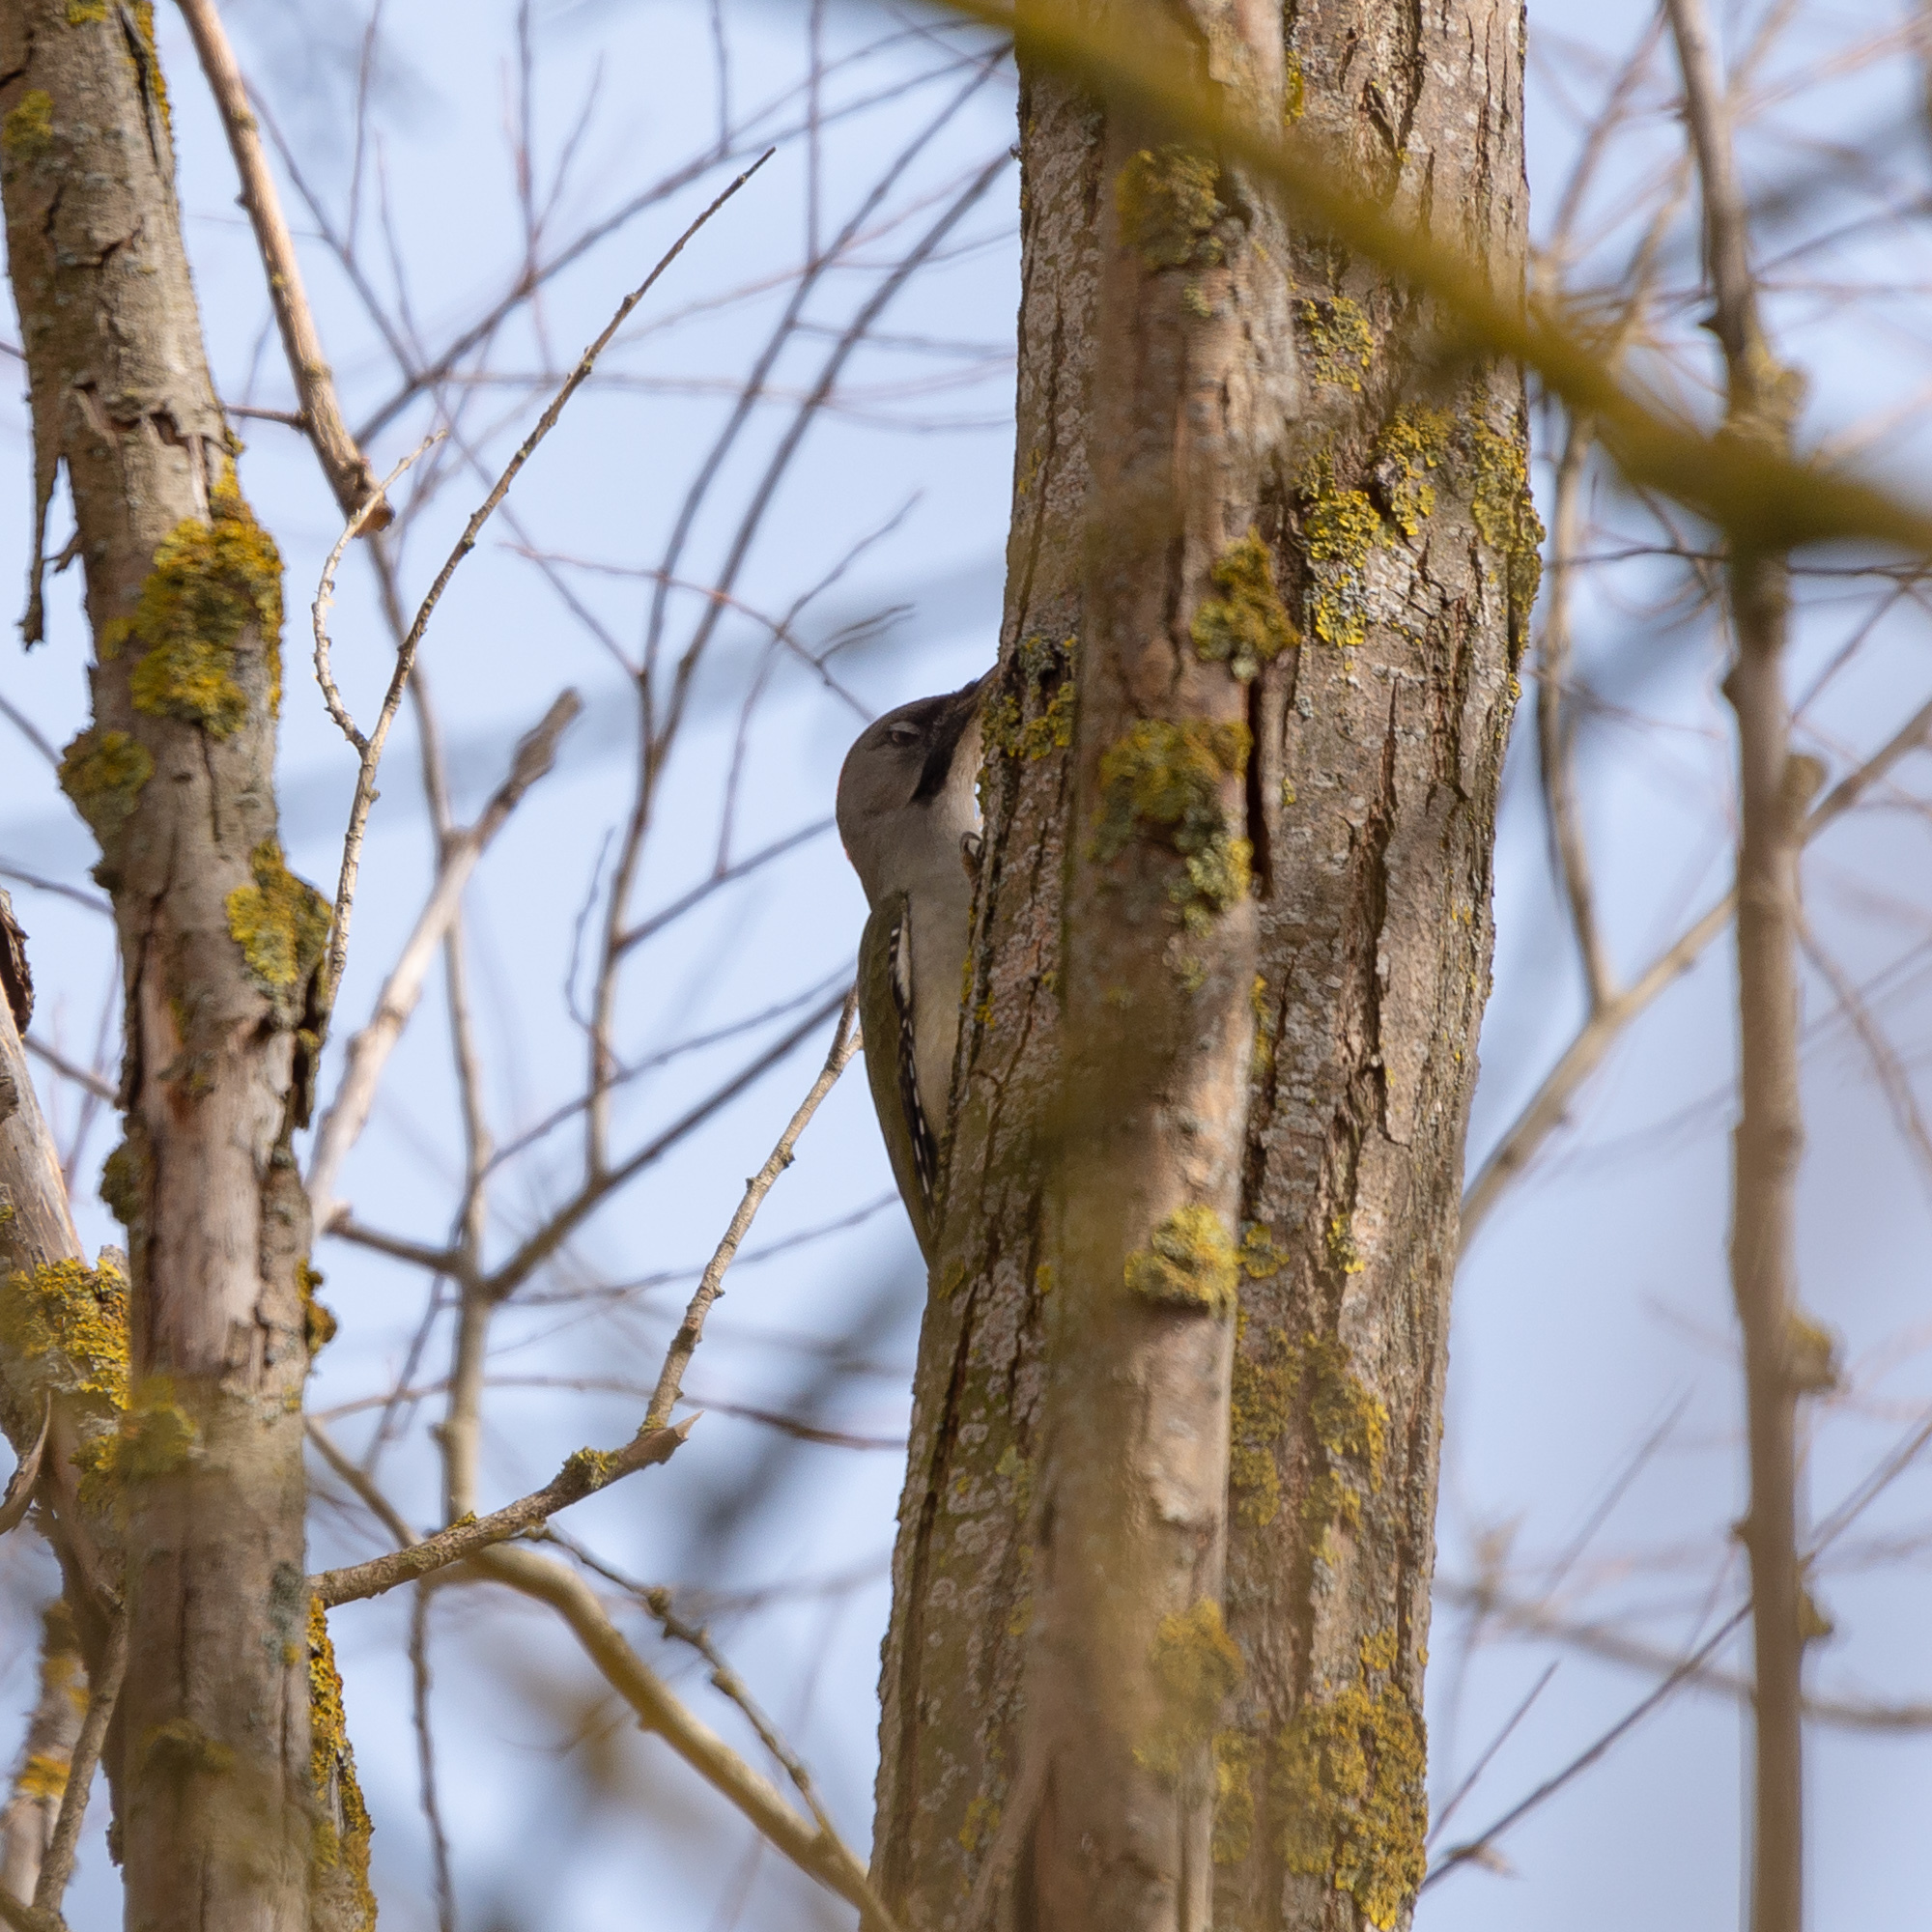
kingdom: Animalia
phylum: Chordata
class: Aves
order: Piciformes
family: Picidae
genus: Picus
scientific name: Picus sharpei
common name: Iberian green woodpecker
